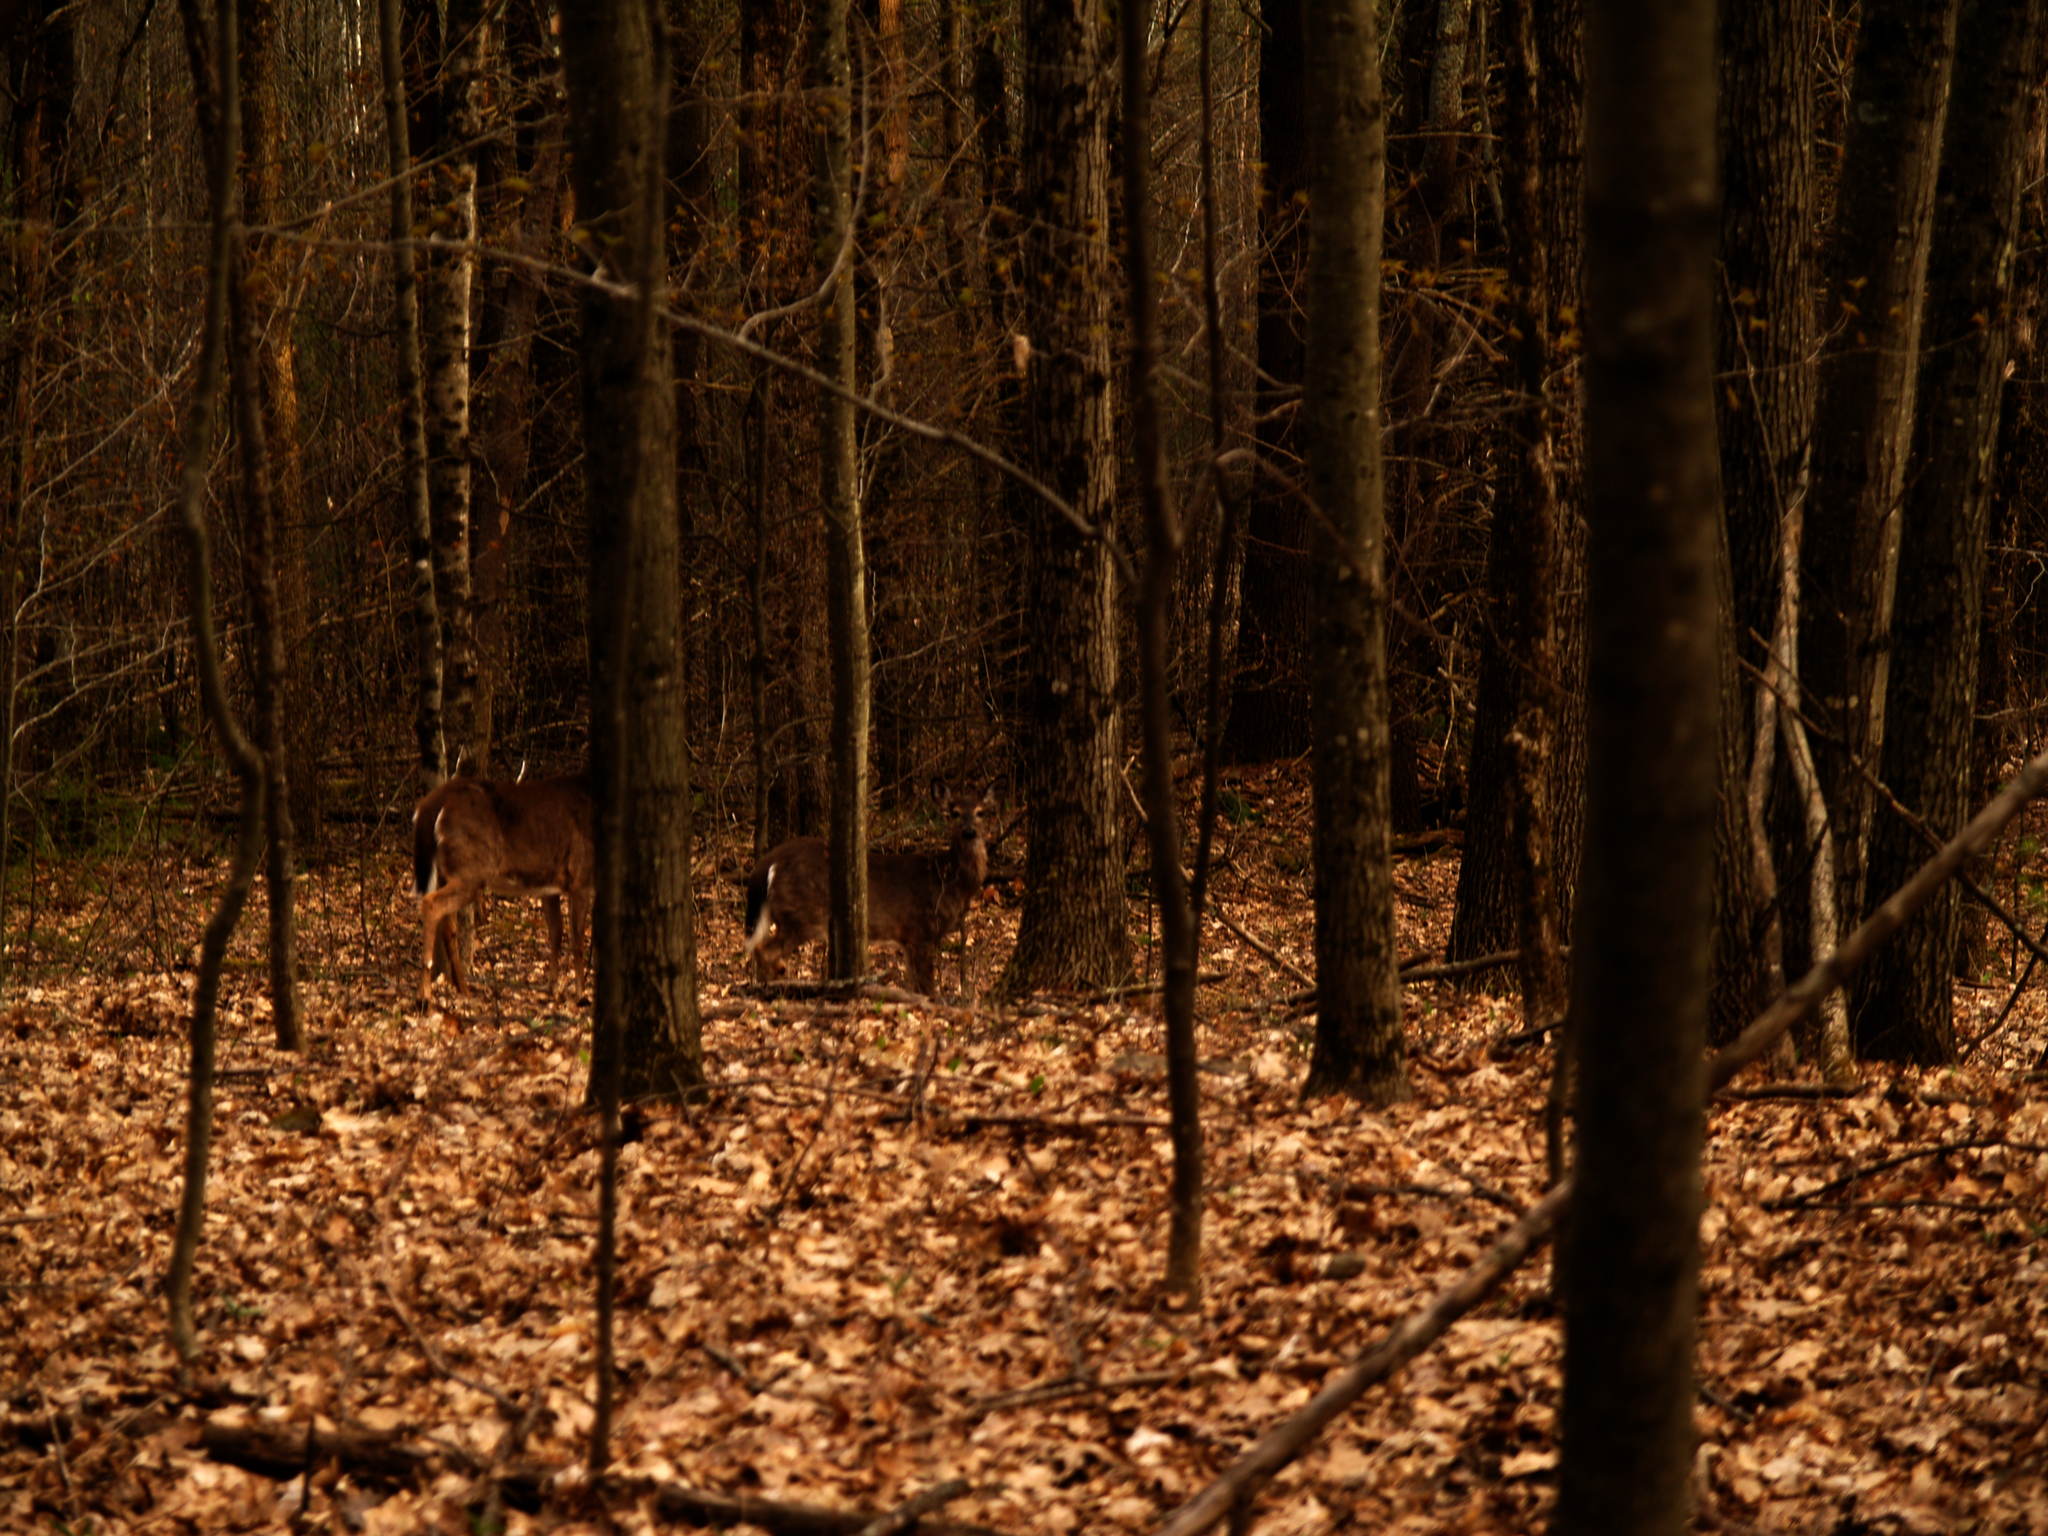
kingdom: Animalia
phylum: Chordata
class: Mammalia
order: Artiodactyla
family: Cervidae
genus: Odocoileus
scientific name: Odocoileus virginianus
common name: White-tailed deer
